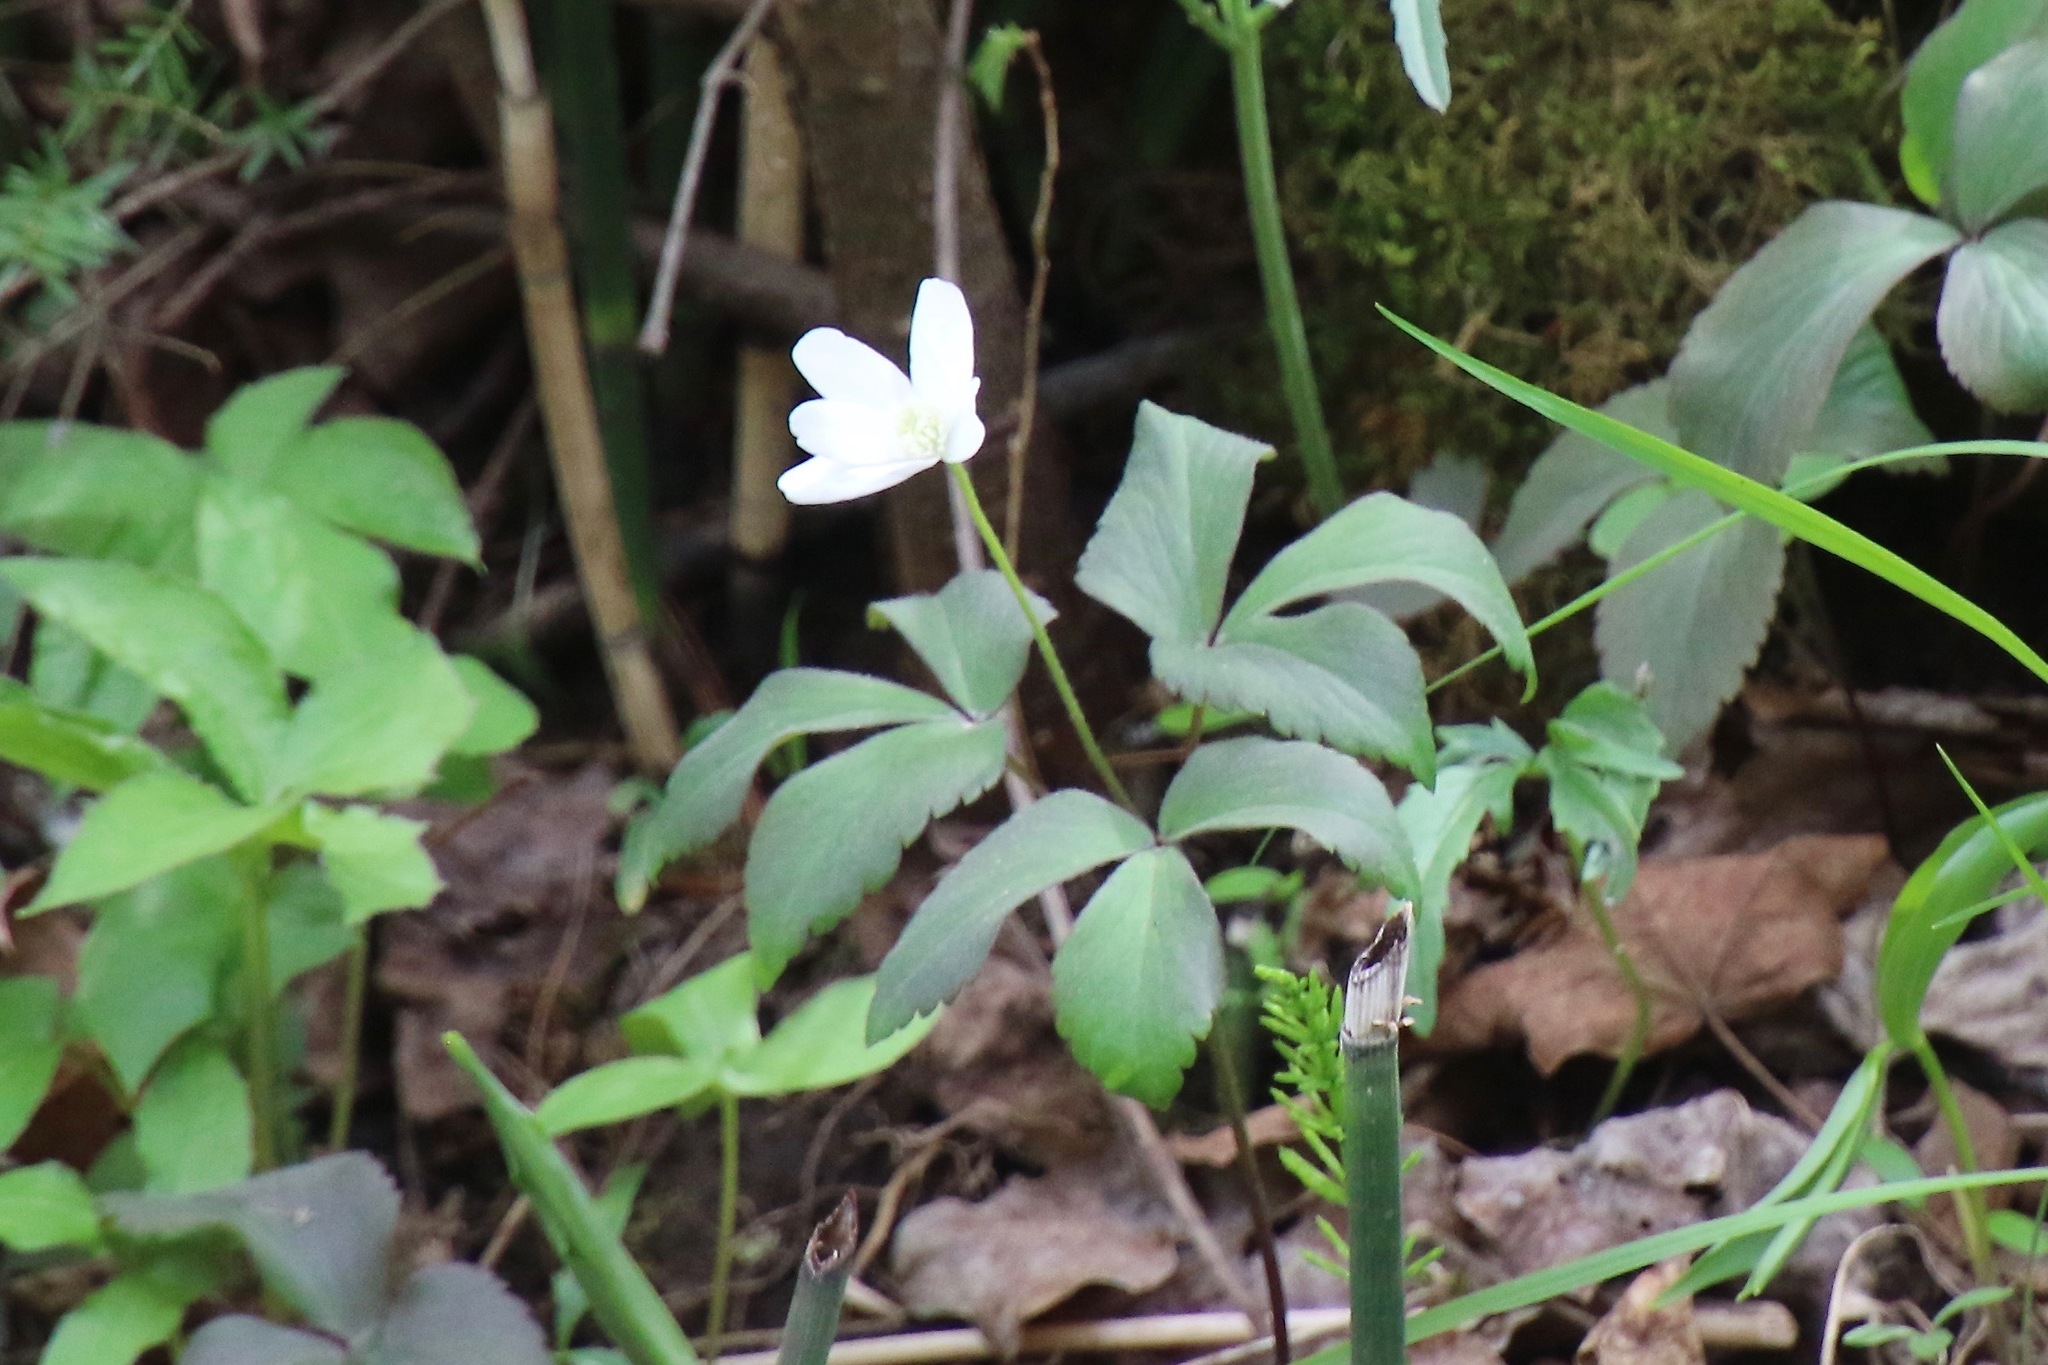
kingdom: Plantae
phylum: Tracheophyta
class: Magnoliopsida
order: Ranunculales
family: Ranunculaceae
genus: Anemone
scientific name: Anemone quinquefolia
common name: Wood anemone
